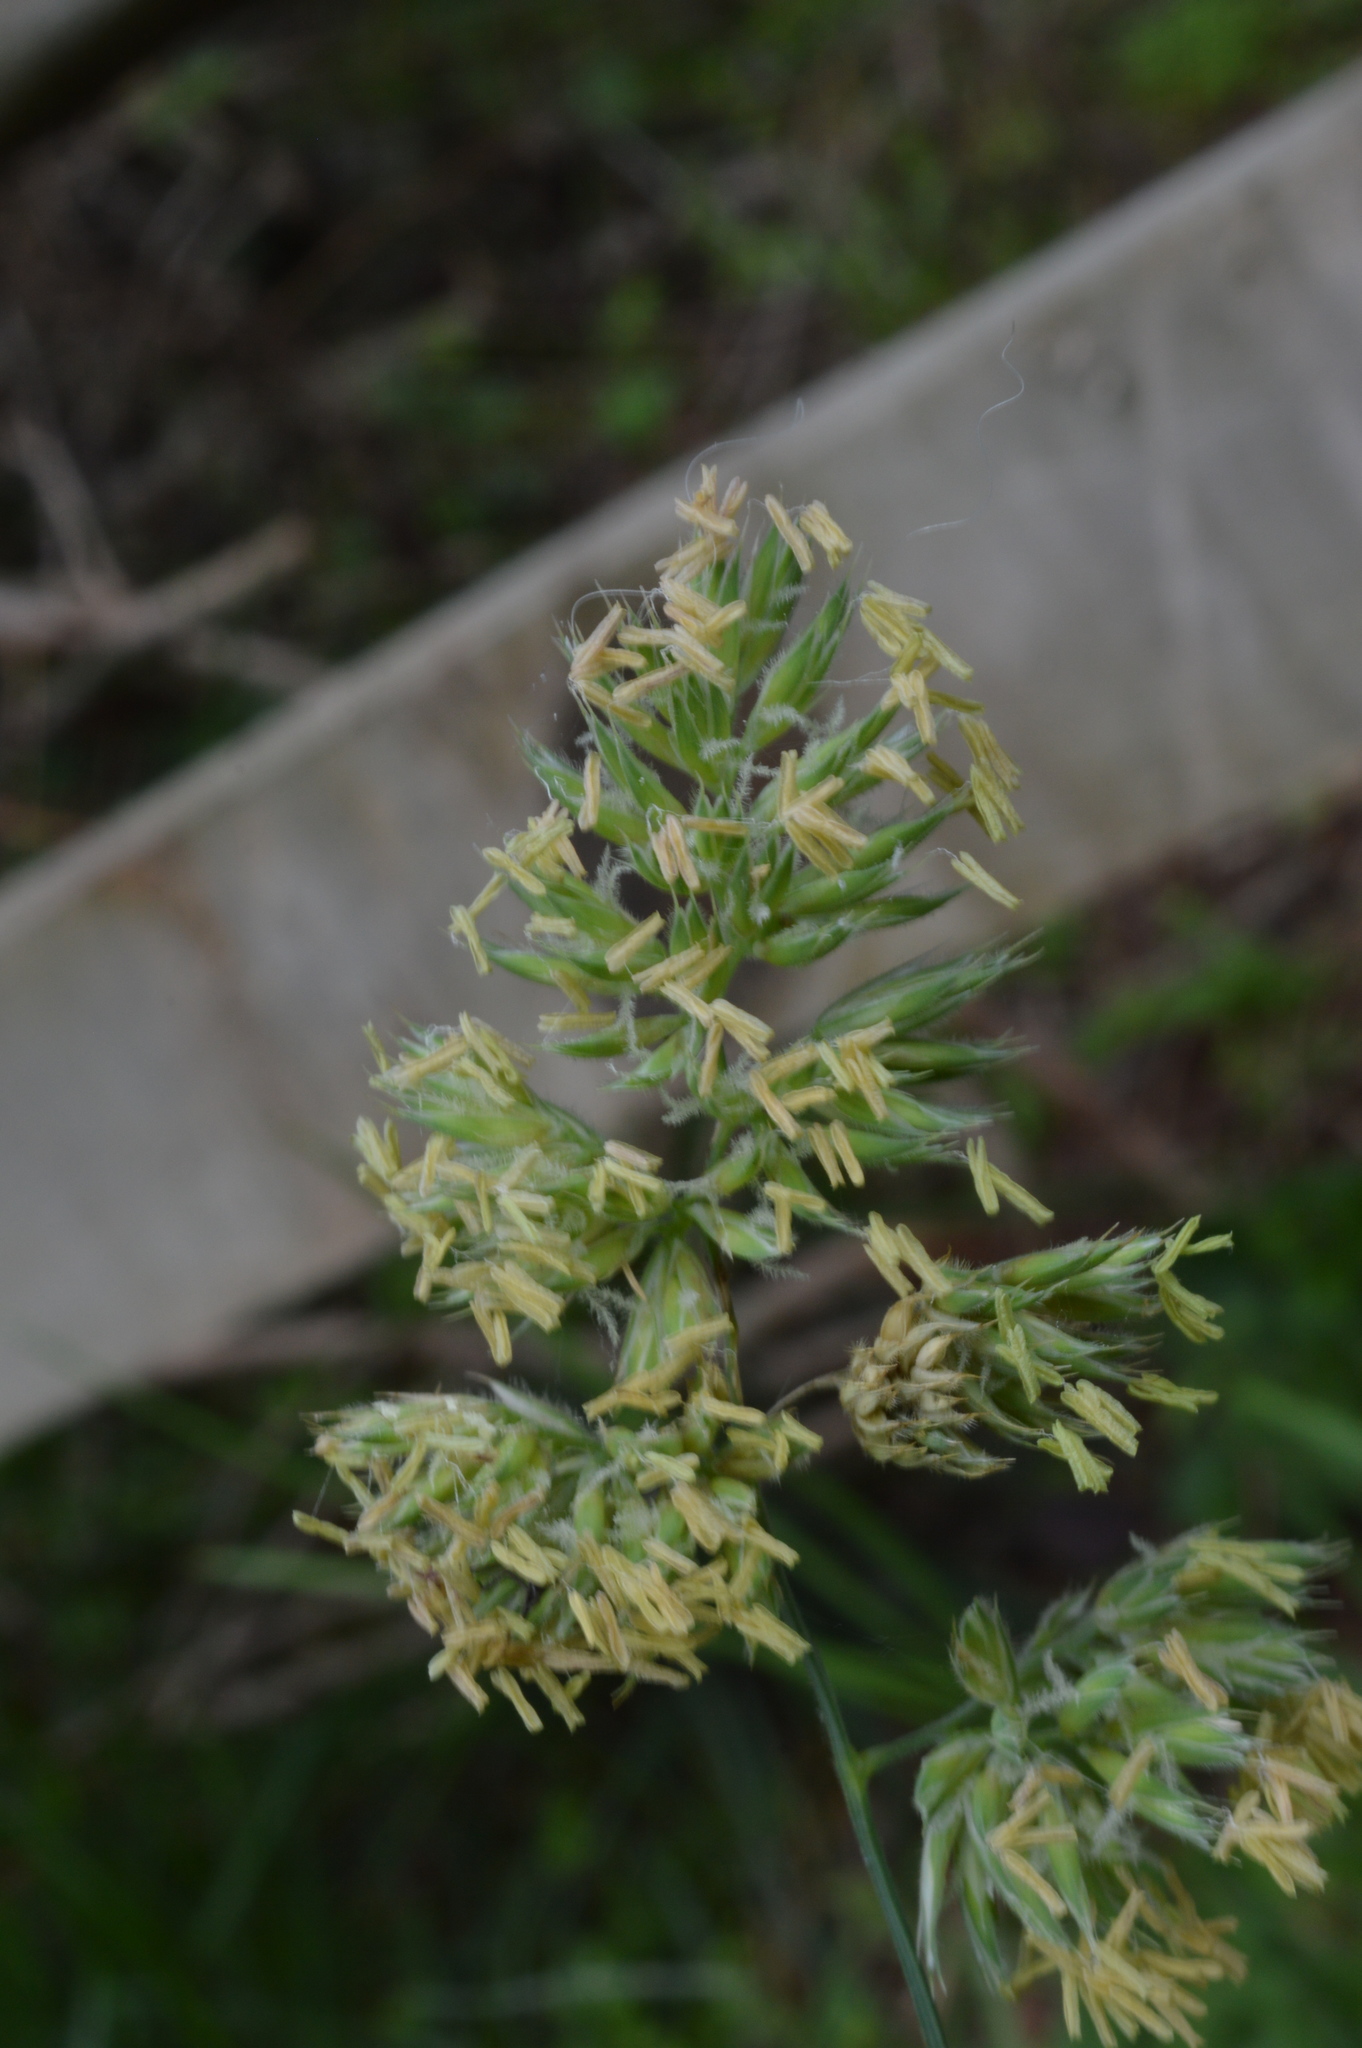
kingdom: Plantae
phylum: Tracheophyta
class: Liliopsida
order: Poales
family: Poaceae
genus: Dactylis
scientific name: Dactylis glomerata
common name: Orchardgrass
